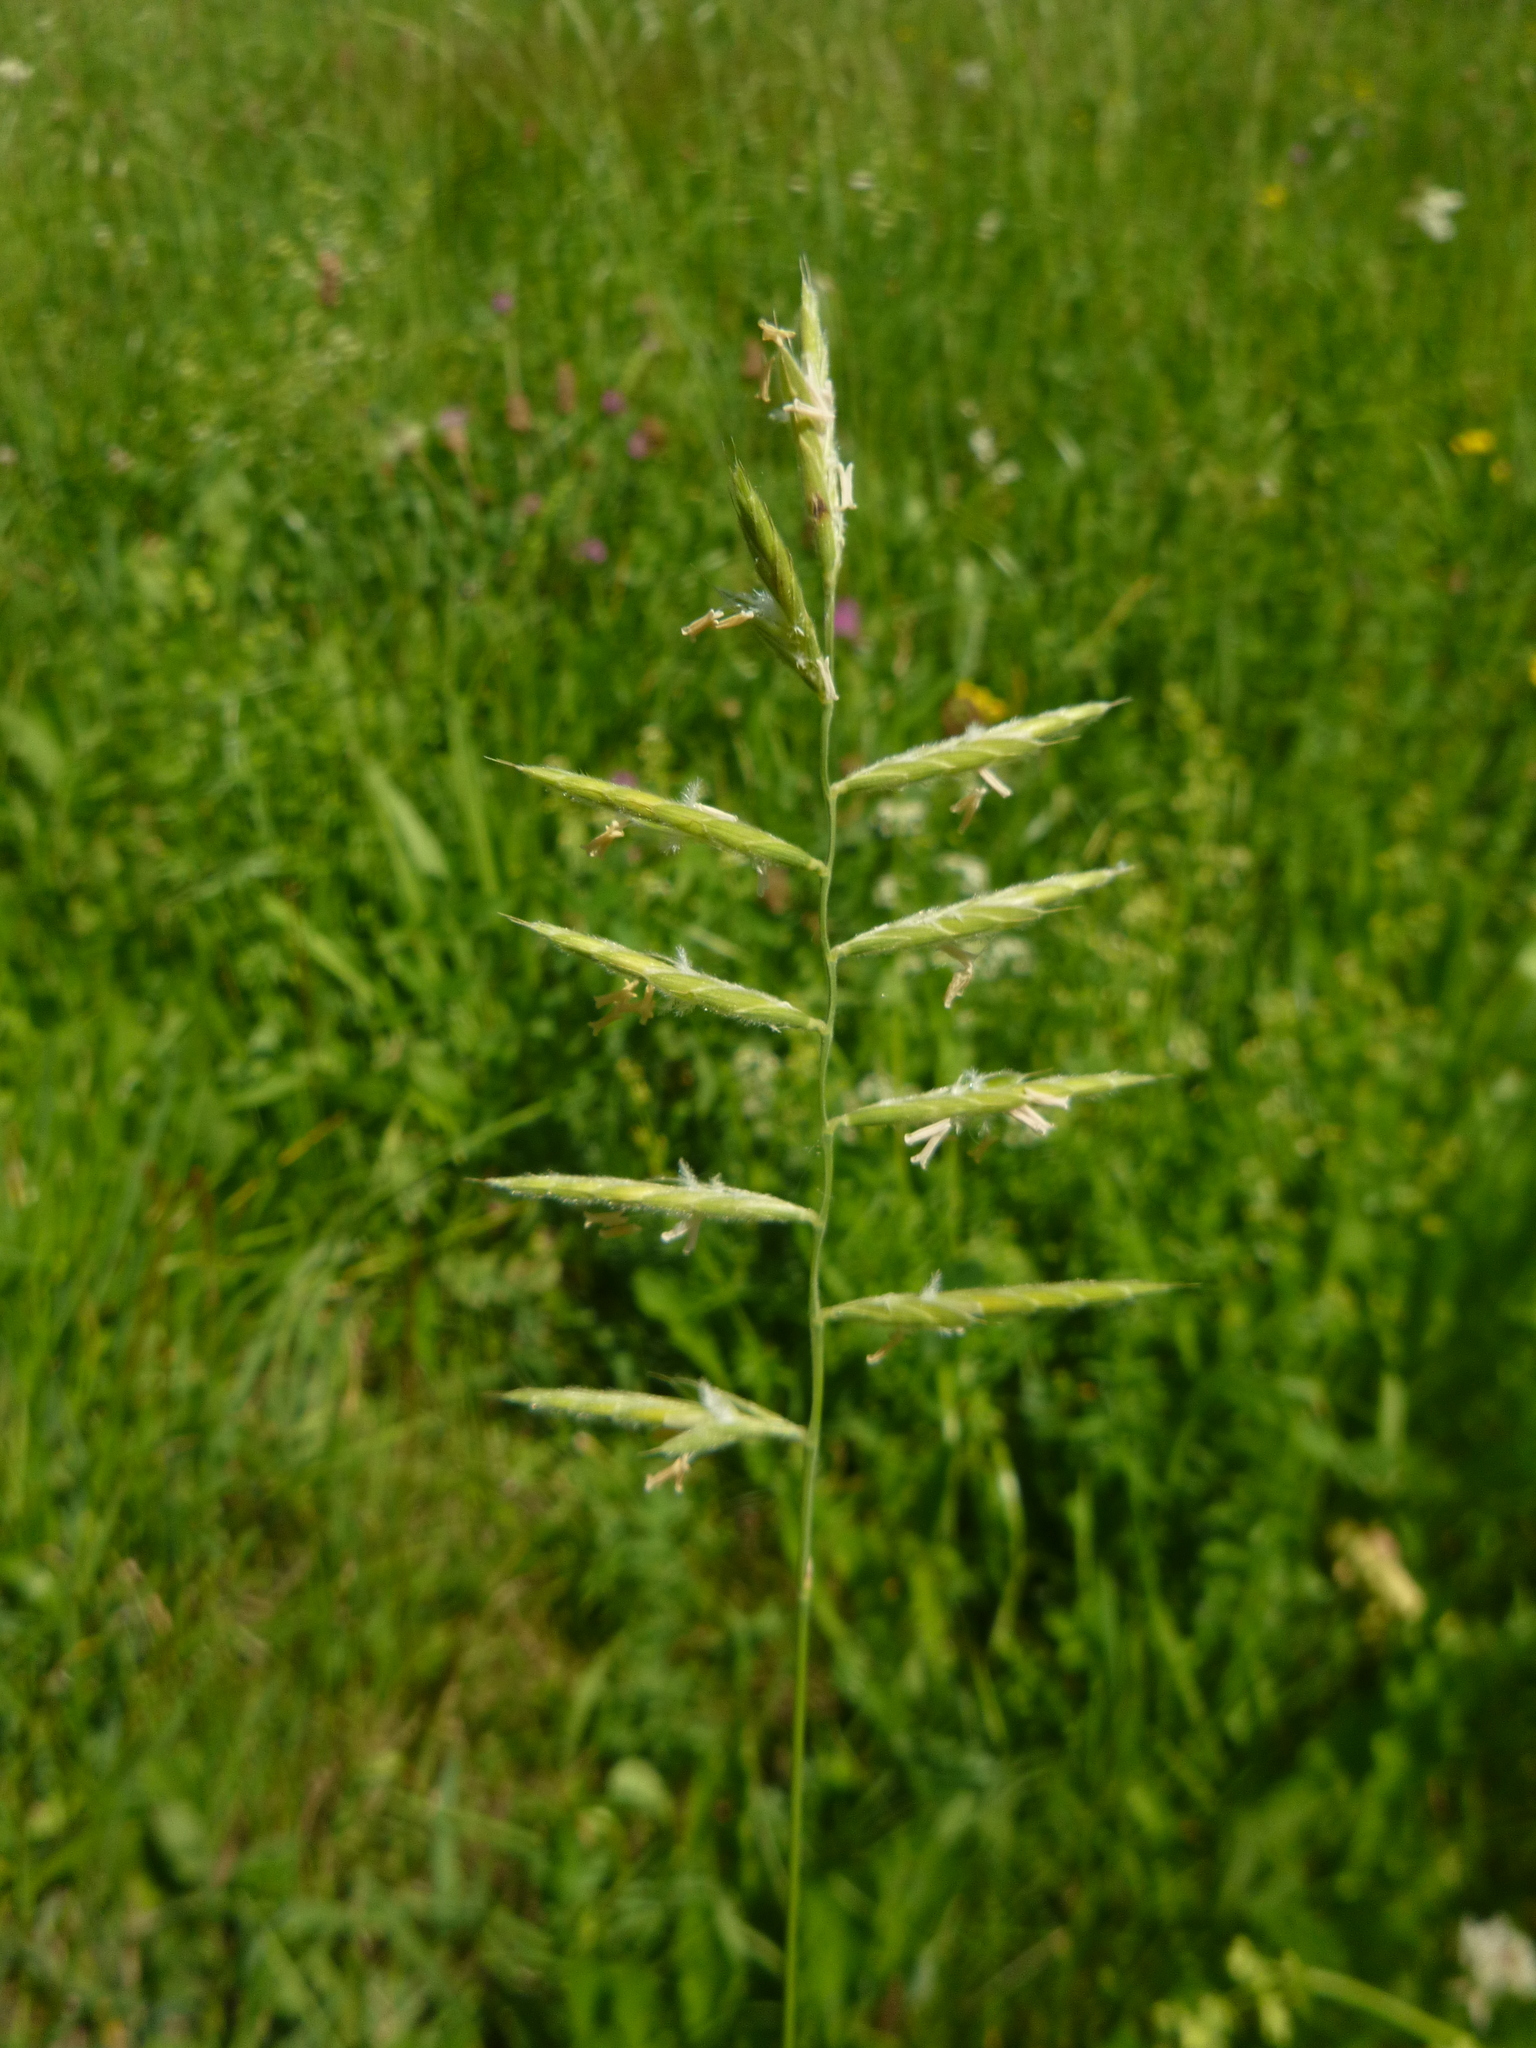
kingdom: Plantae
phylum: Tracheophyta
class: Liliopsida
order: Poales
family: Poaceae
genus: Brachypodium
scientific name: Brachypodium pinnatum
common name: Tor grass
